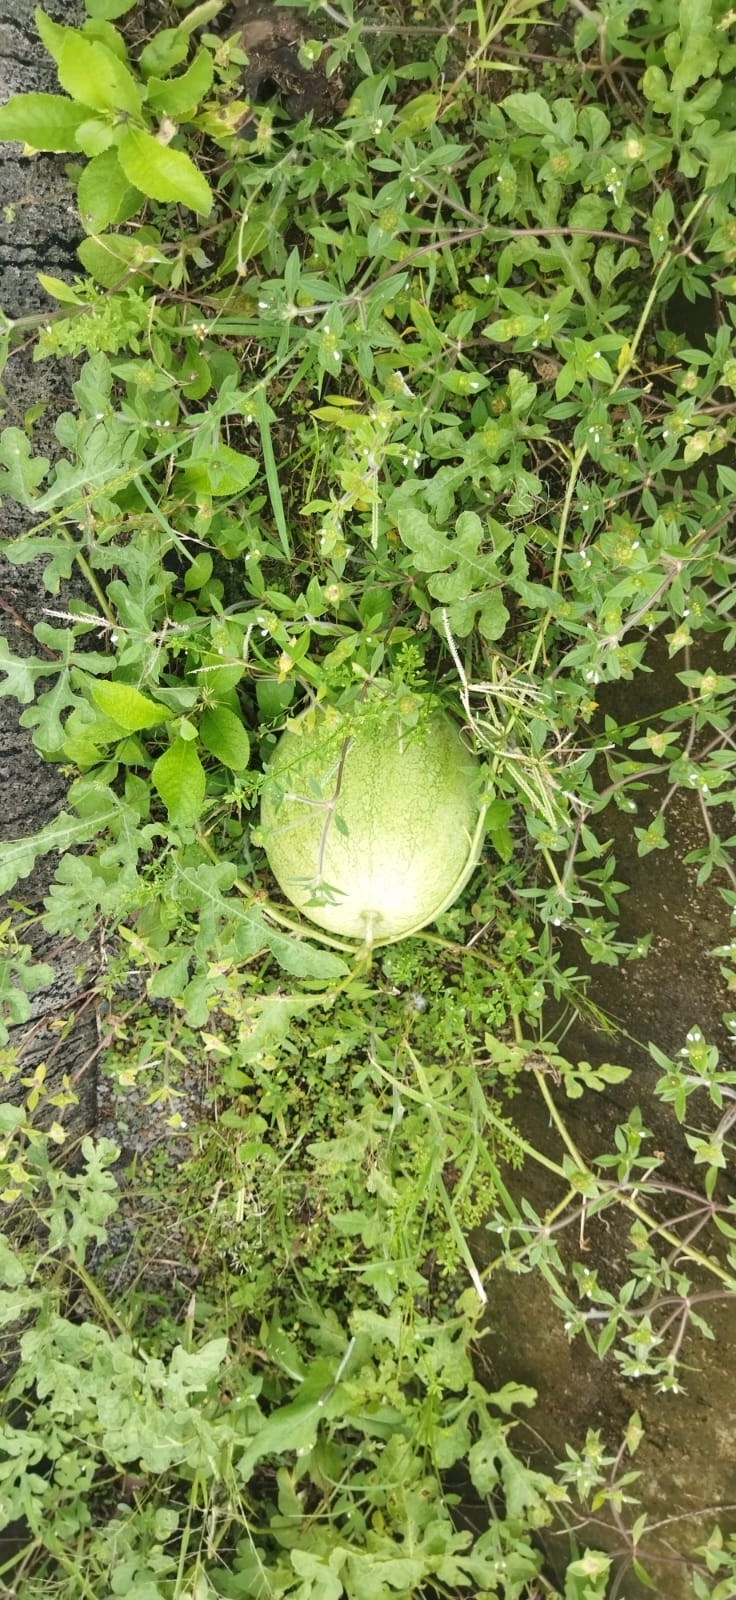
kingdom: Plantae
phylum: Tracheophyta
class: Magnoliopsida
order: Cucurbitales
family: Cucurbitaceae
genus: Citrullus
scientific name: Citrullus lanatus
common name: Watermelon
